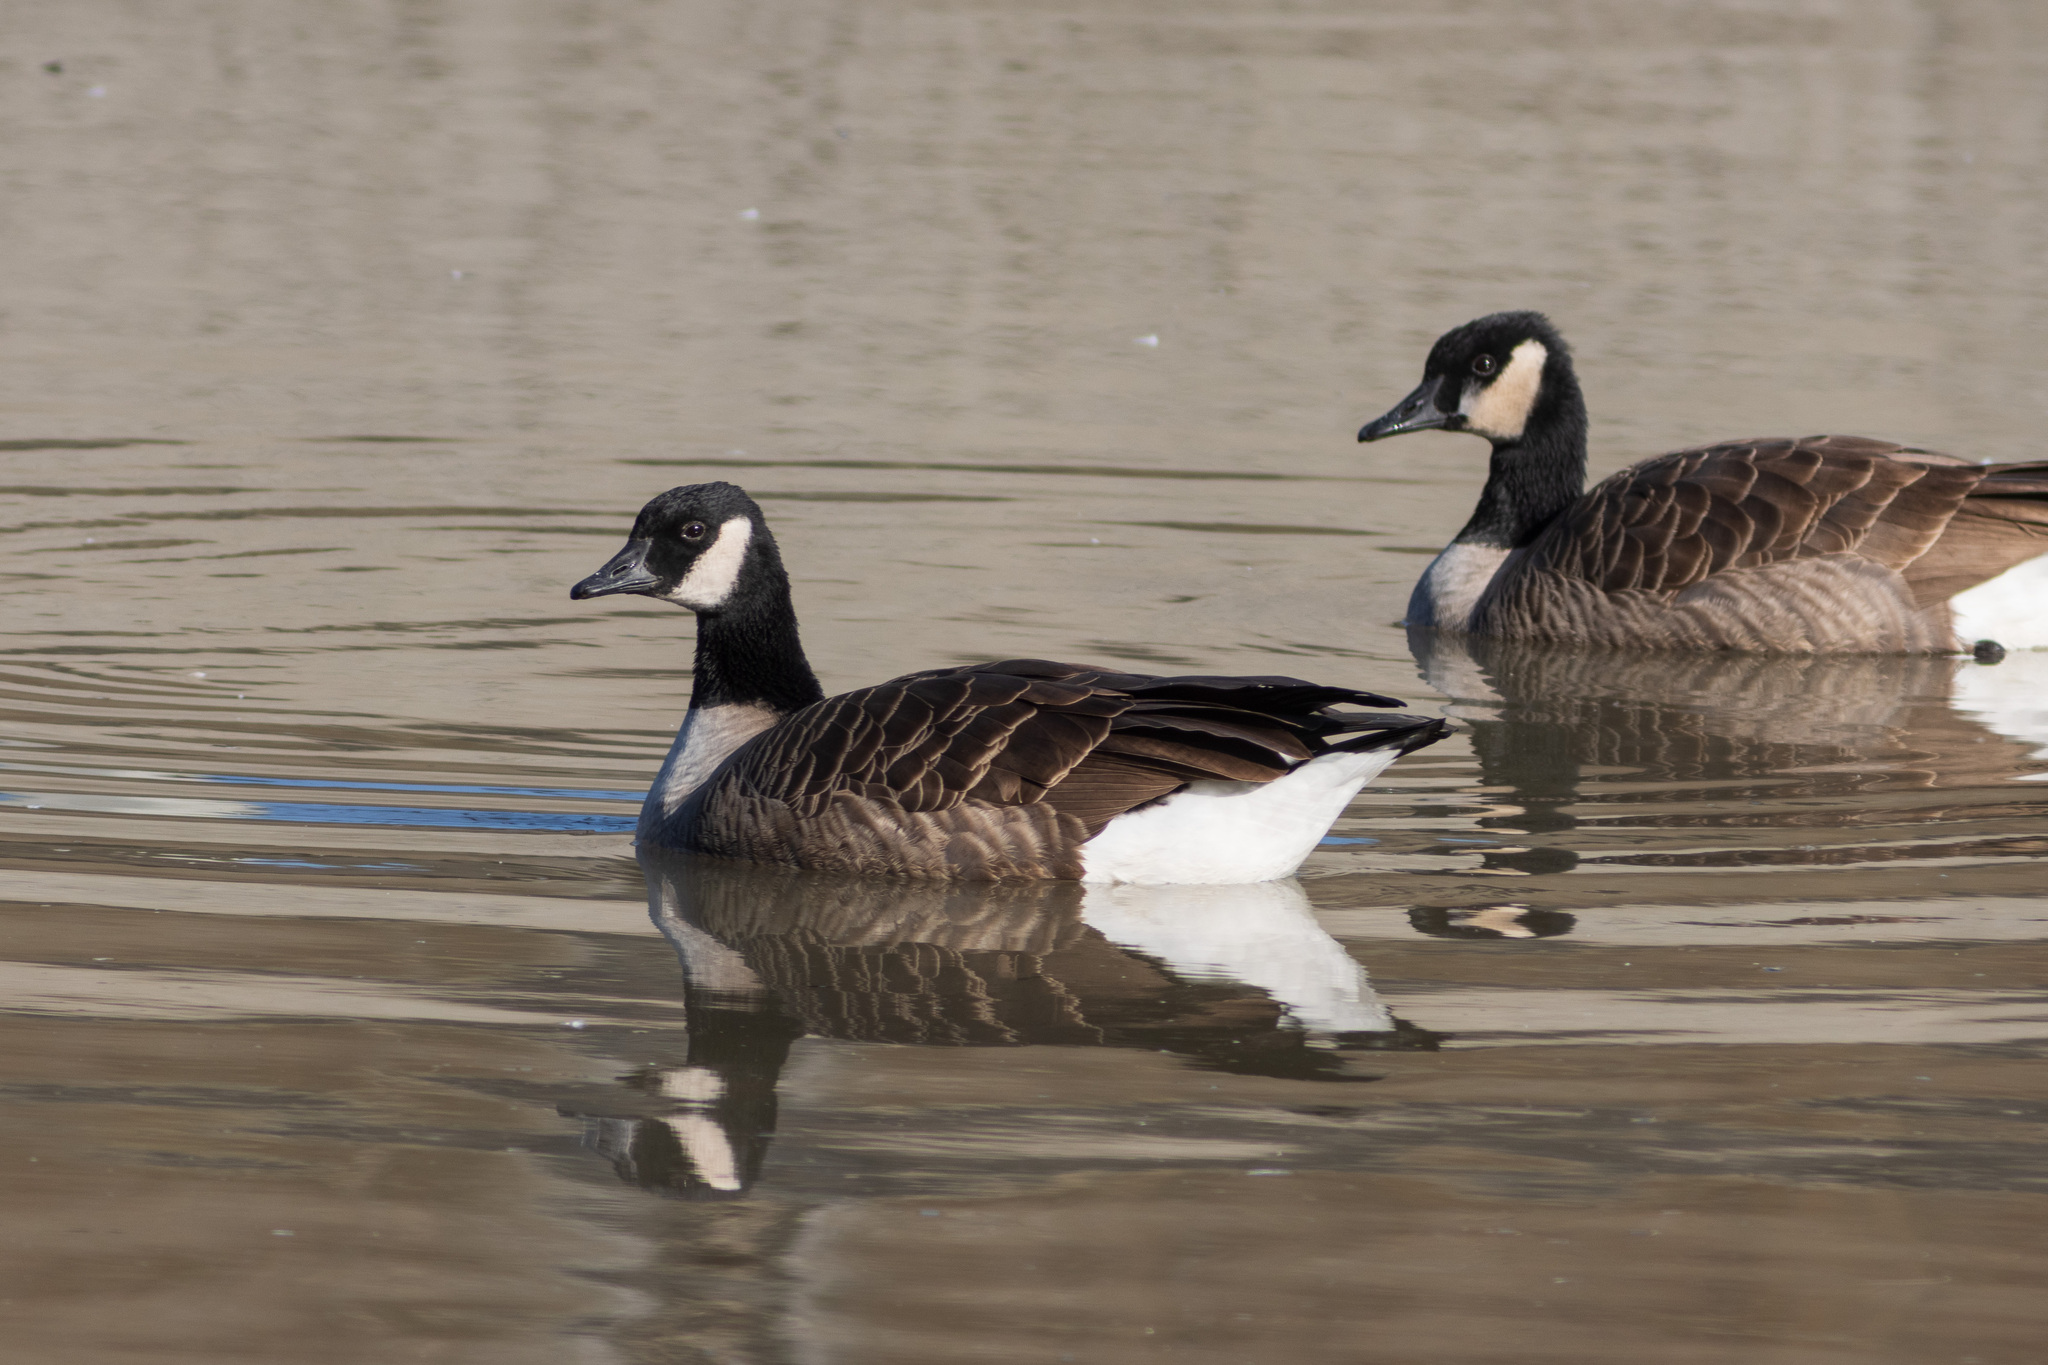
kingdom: Animalia
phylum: Chordata
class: Aves
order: Anseriformes
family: Anatidae
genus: Branta
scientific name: Branta canadensis
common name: Canada goose
